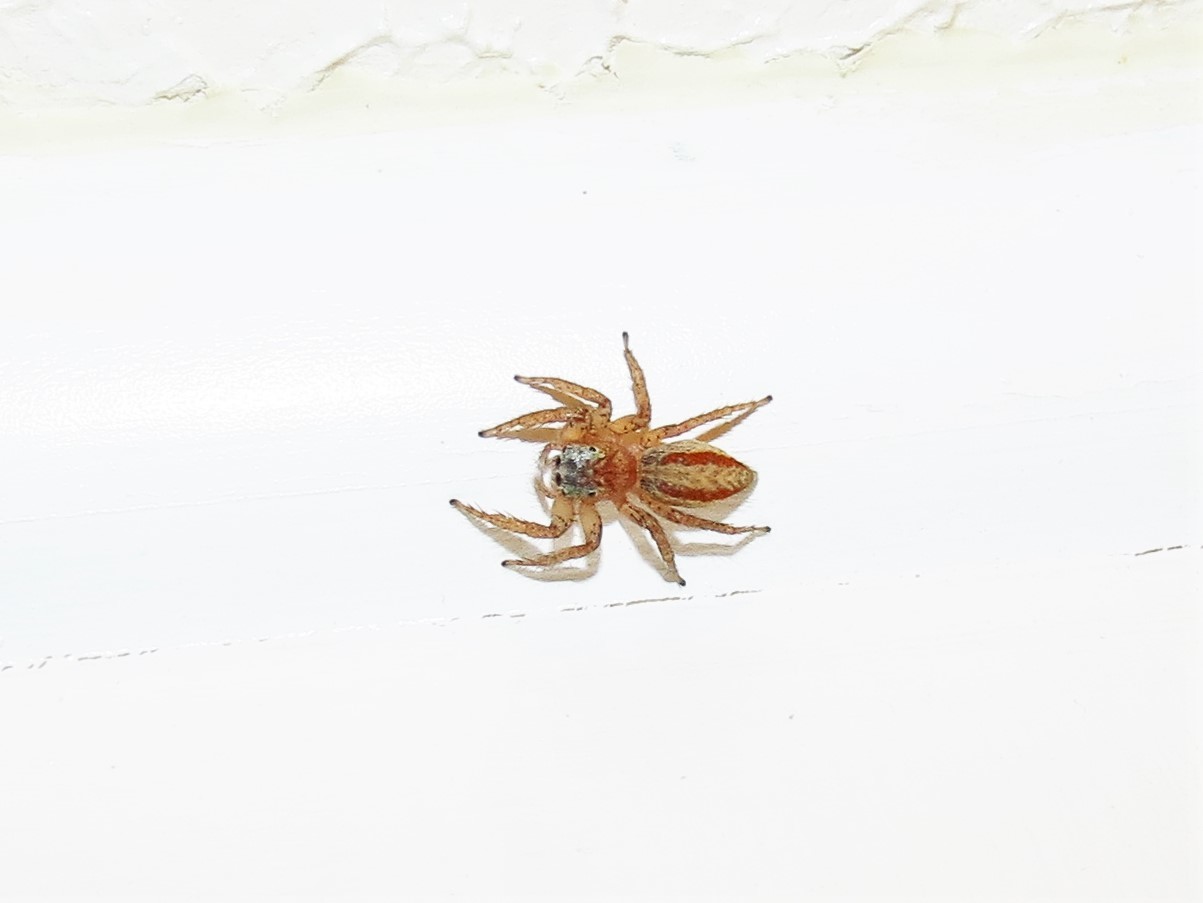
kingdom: Animalia
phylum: Arthropoda
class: Arachnida
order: Araneae
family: Salticidae
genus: Maevia
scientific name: Maevia inclemens
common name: Dimorphic jumper
